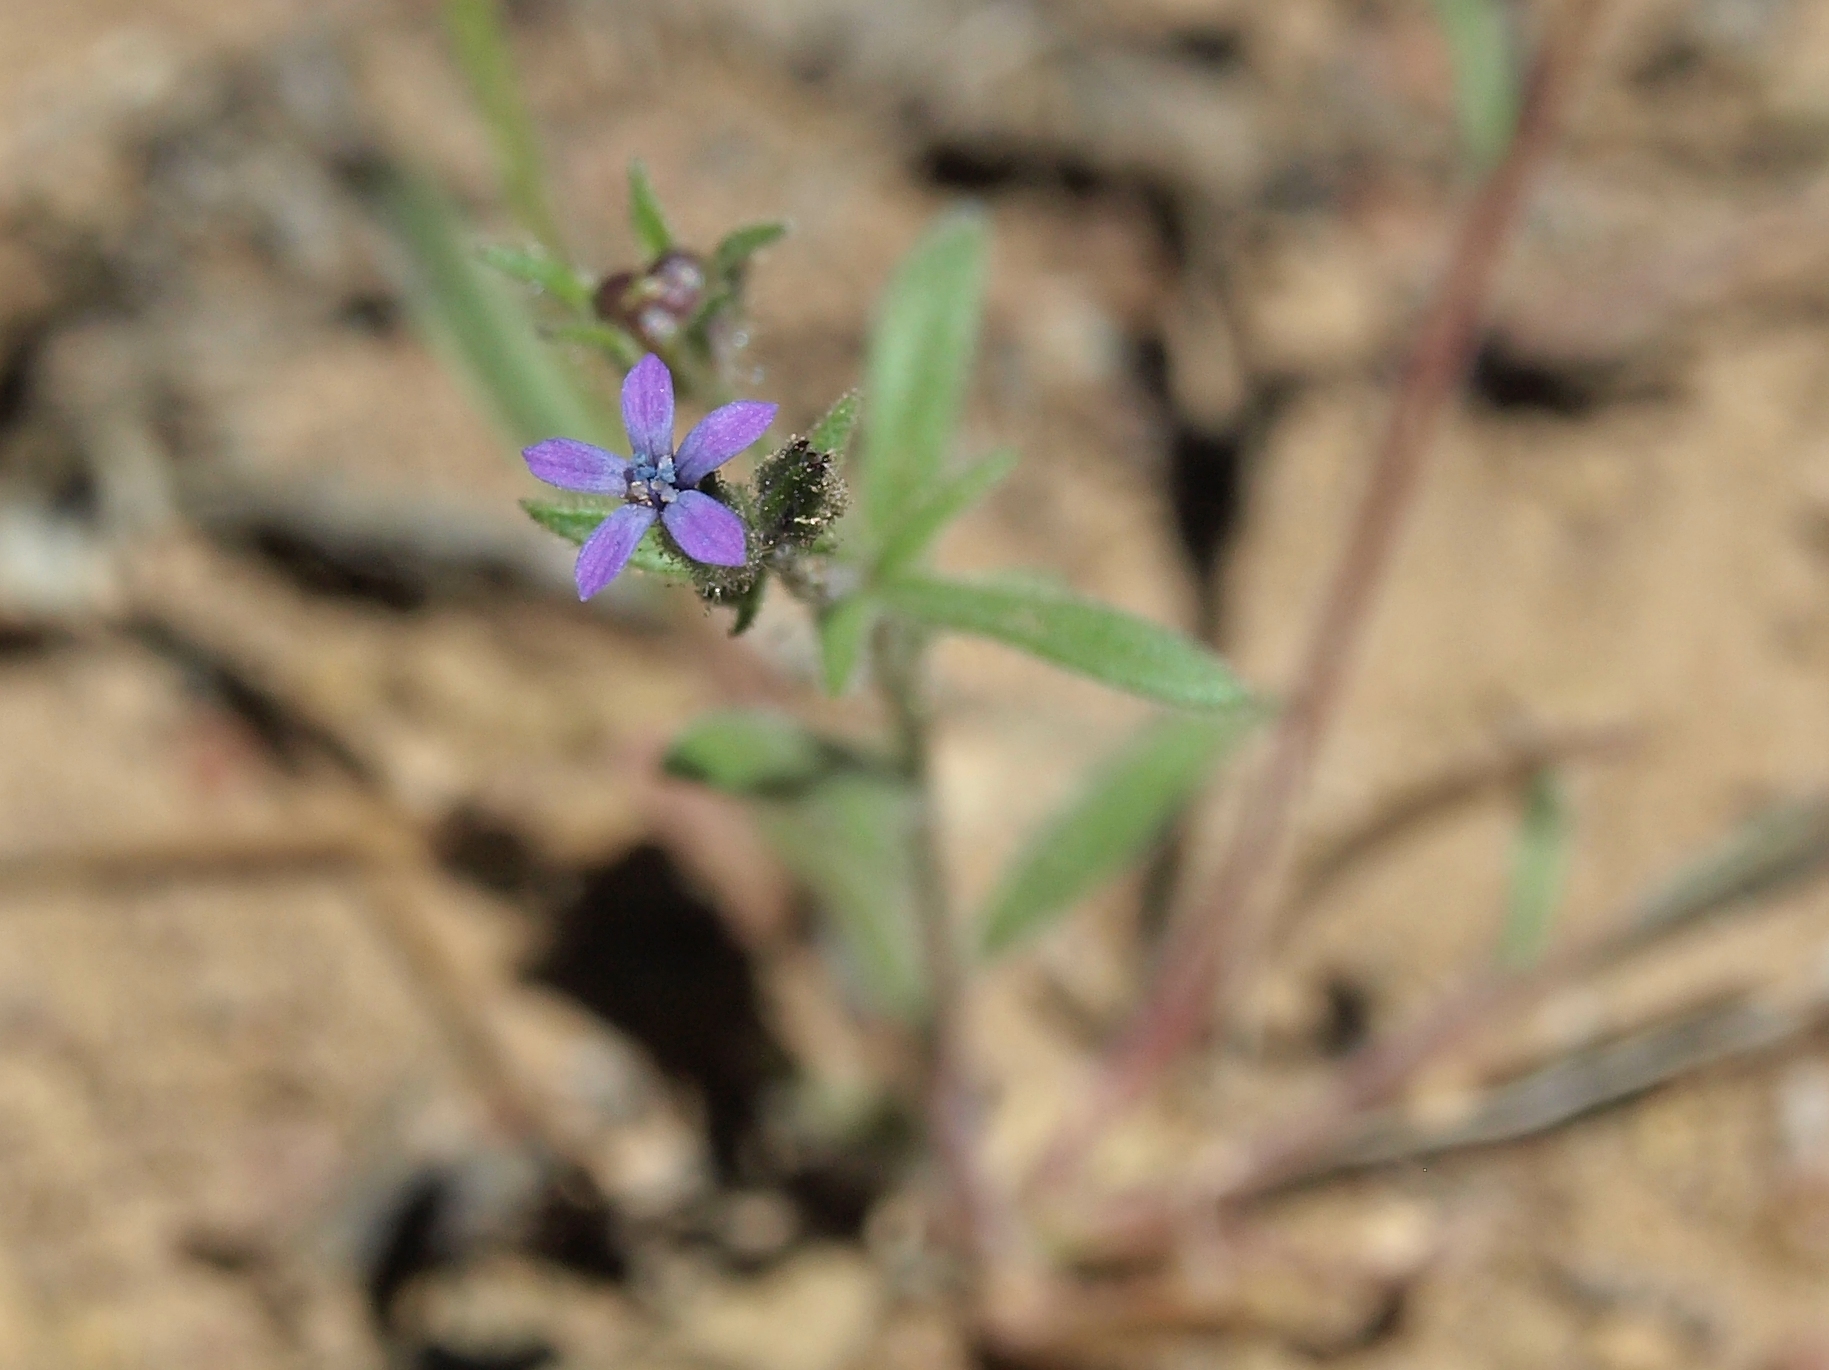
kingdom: Plantae
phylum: Tracheophyta
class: Magnoliopsida
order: Ericales
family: Polemoniaceae
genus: Allophyllum
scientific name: Allophyllum gilioides
